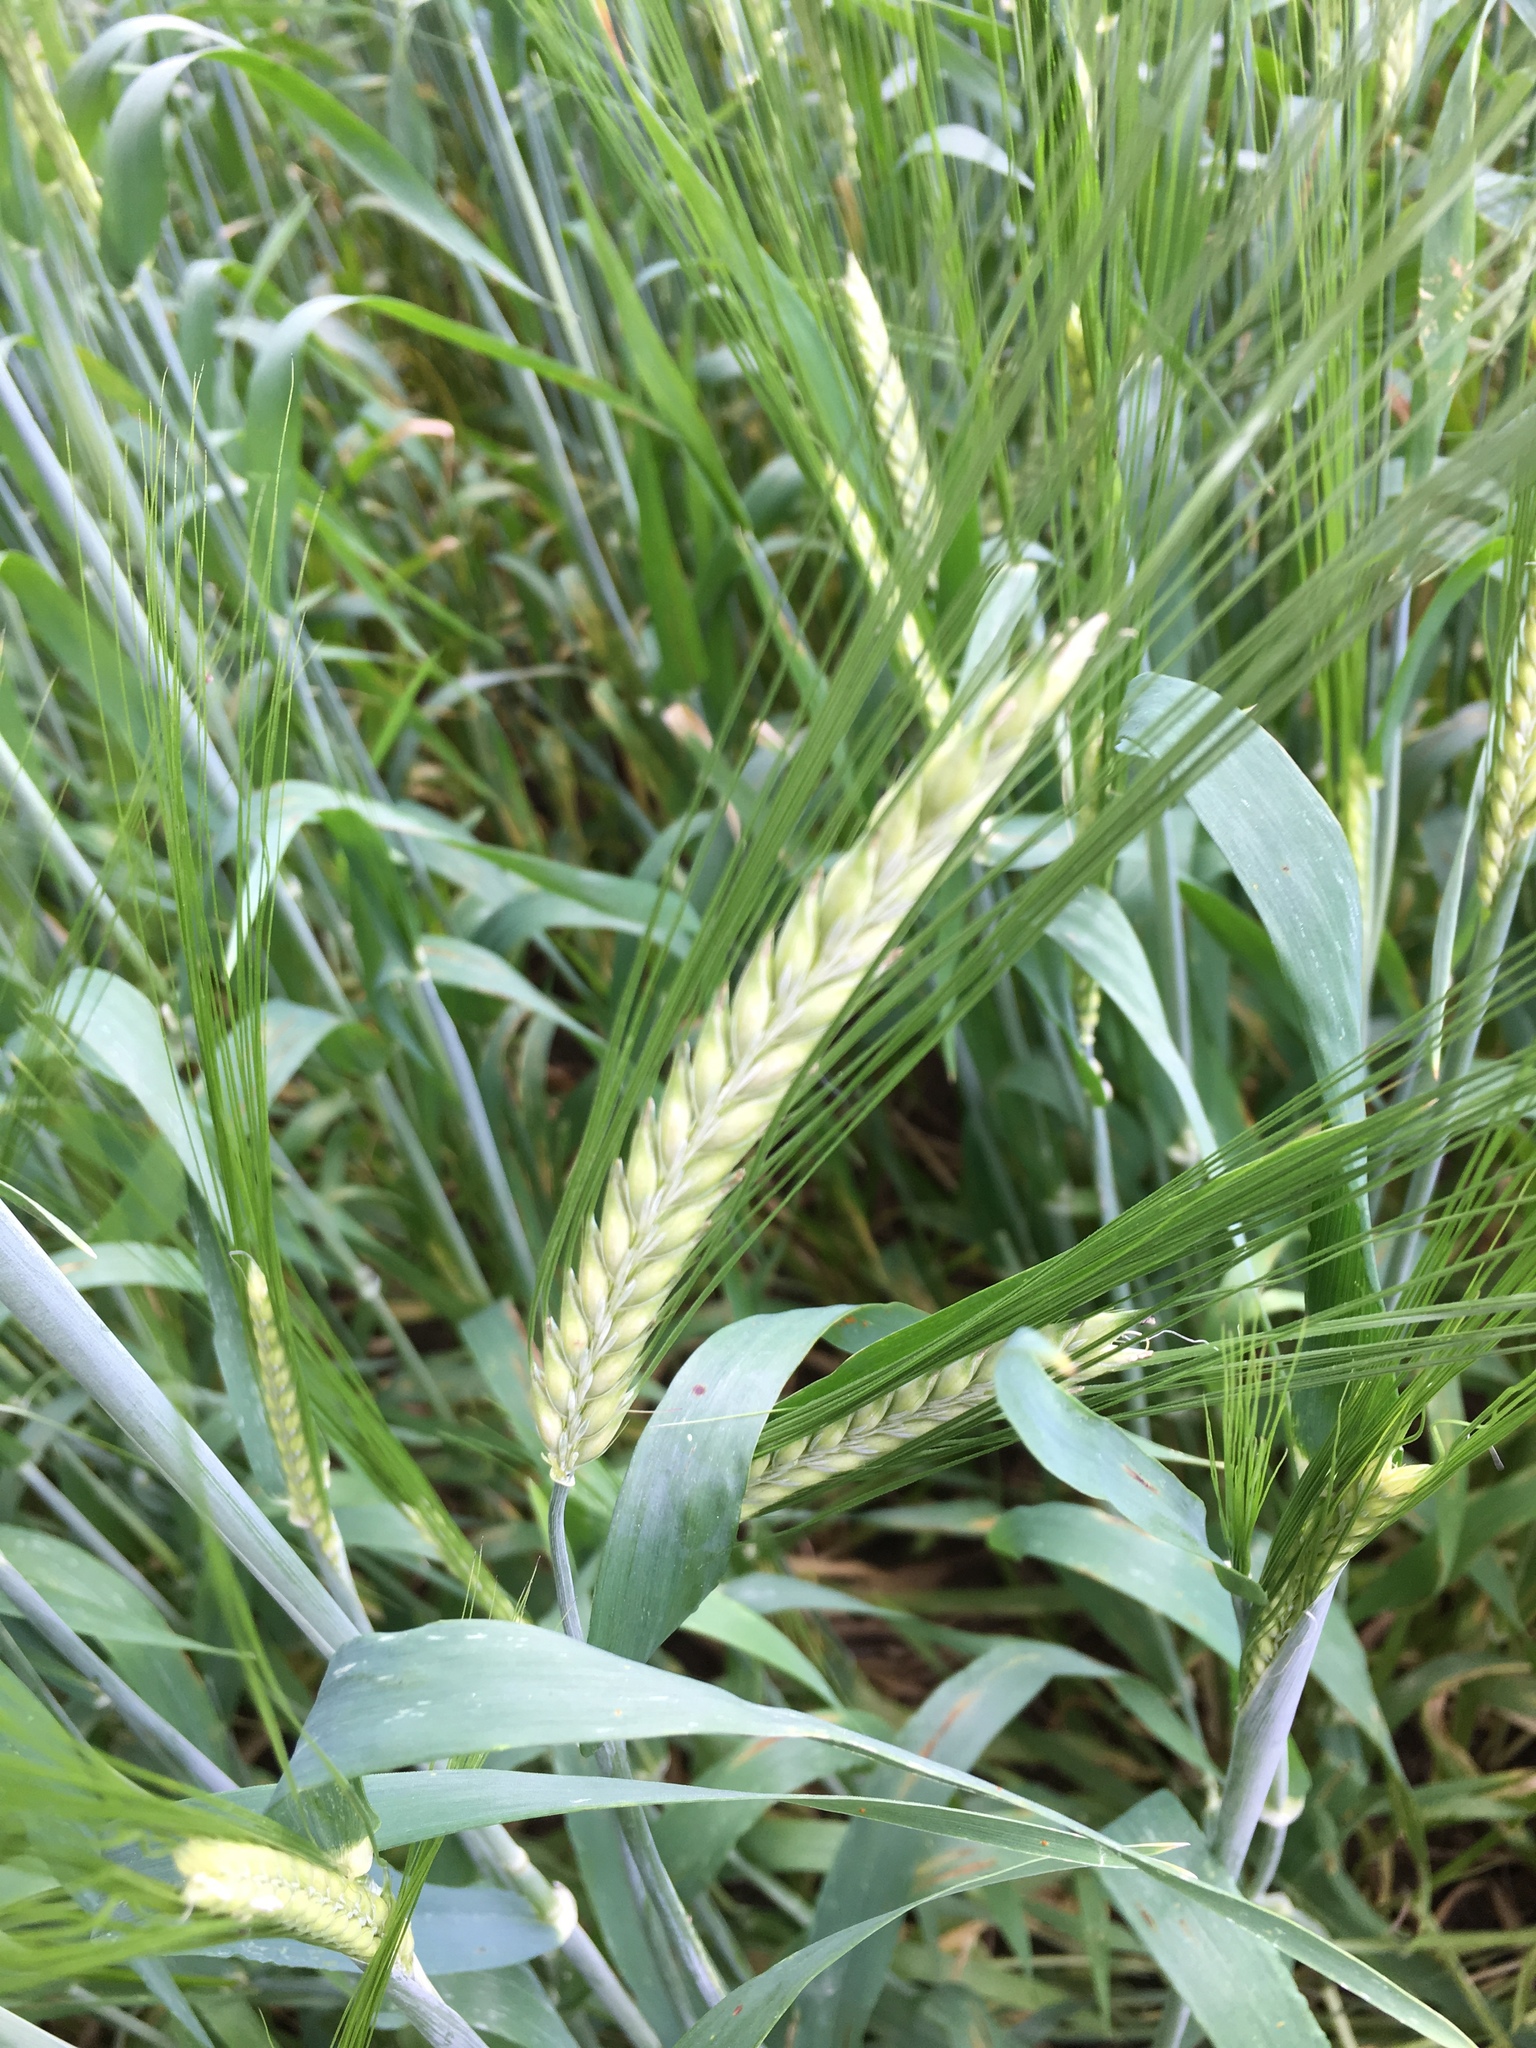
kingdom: Plantae
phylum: Tracheophyta
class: Liliopsida
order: Poales
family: Poaceae
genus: Hordeum
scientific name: Hordeum distichon
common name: Two-rowed barley
